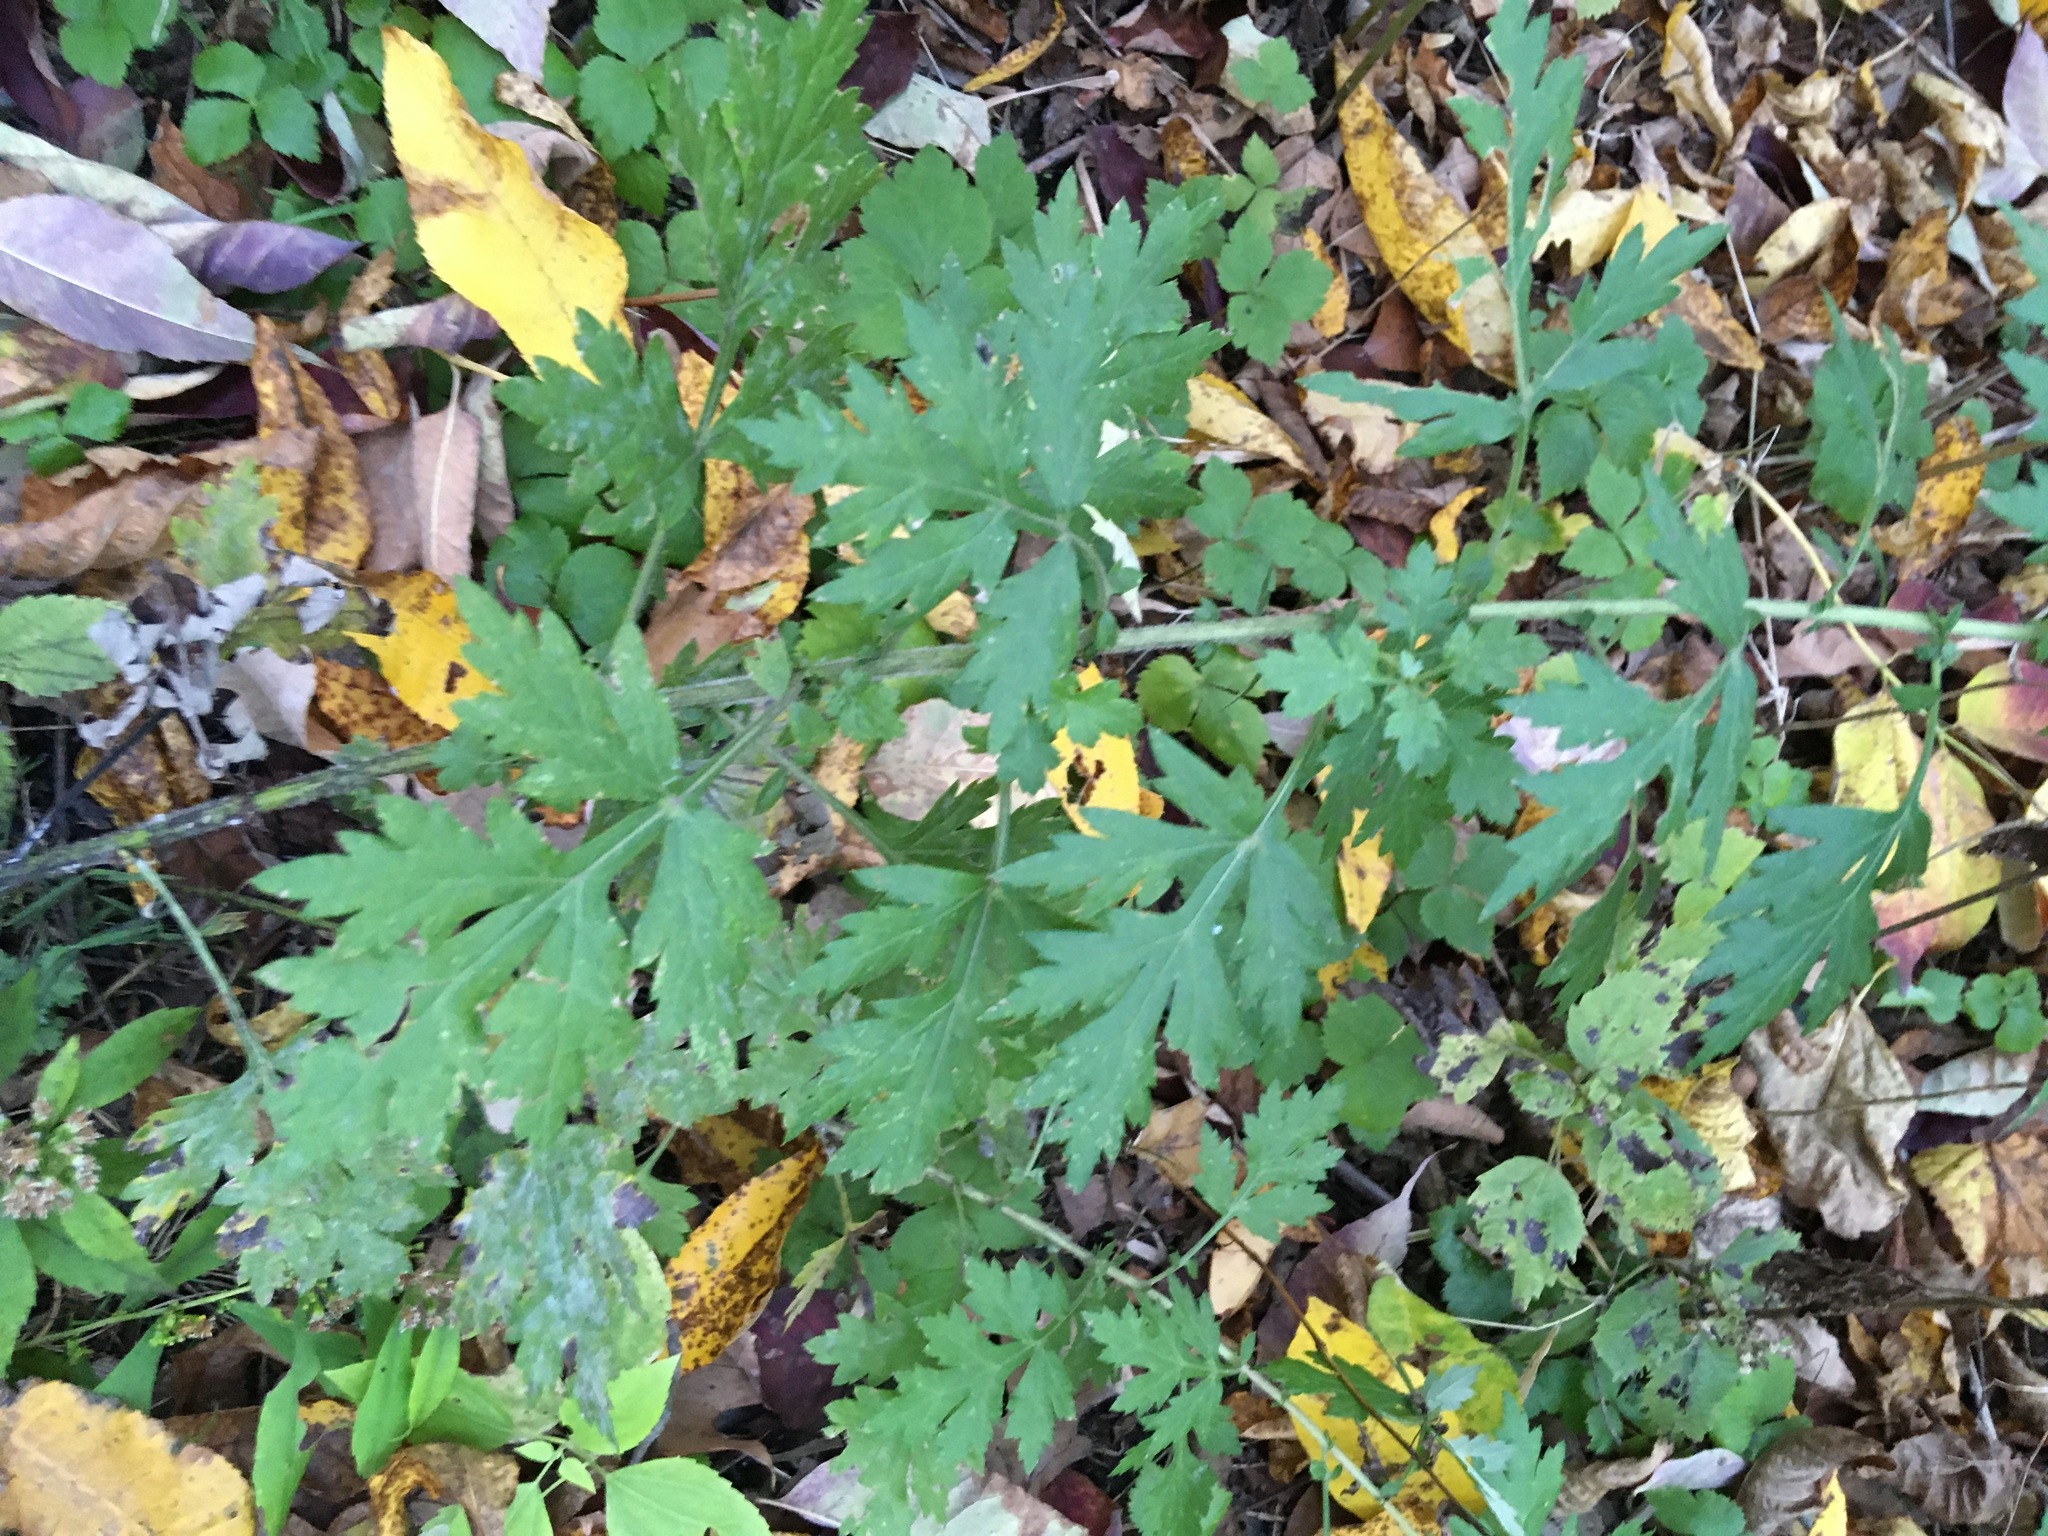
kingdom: Plantae
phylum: Tracheophyta
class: Magnoliopsida
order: Asterales
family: Asteraceae
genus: Artemisia
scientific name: Artemisia vulgaris
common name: Mugwort
